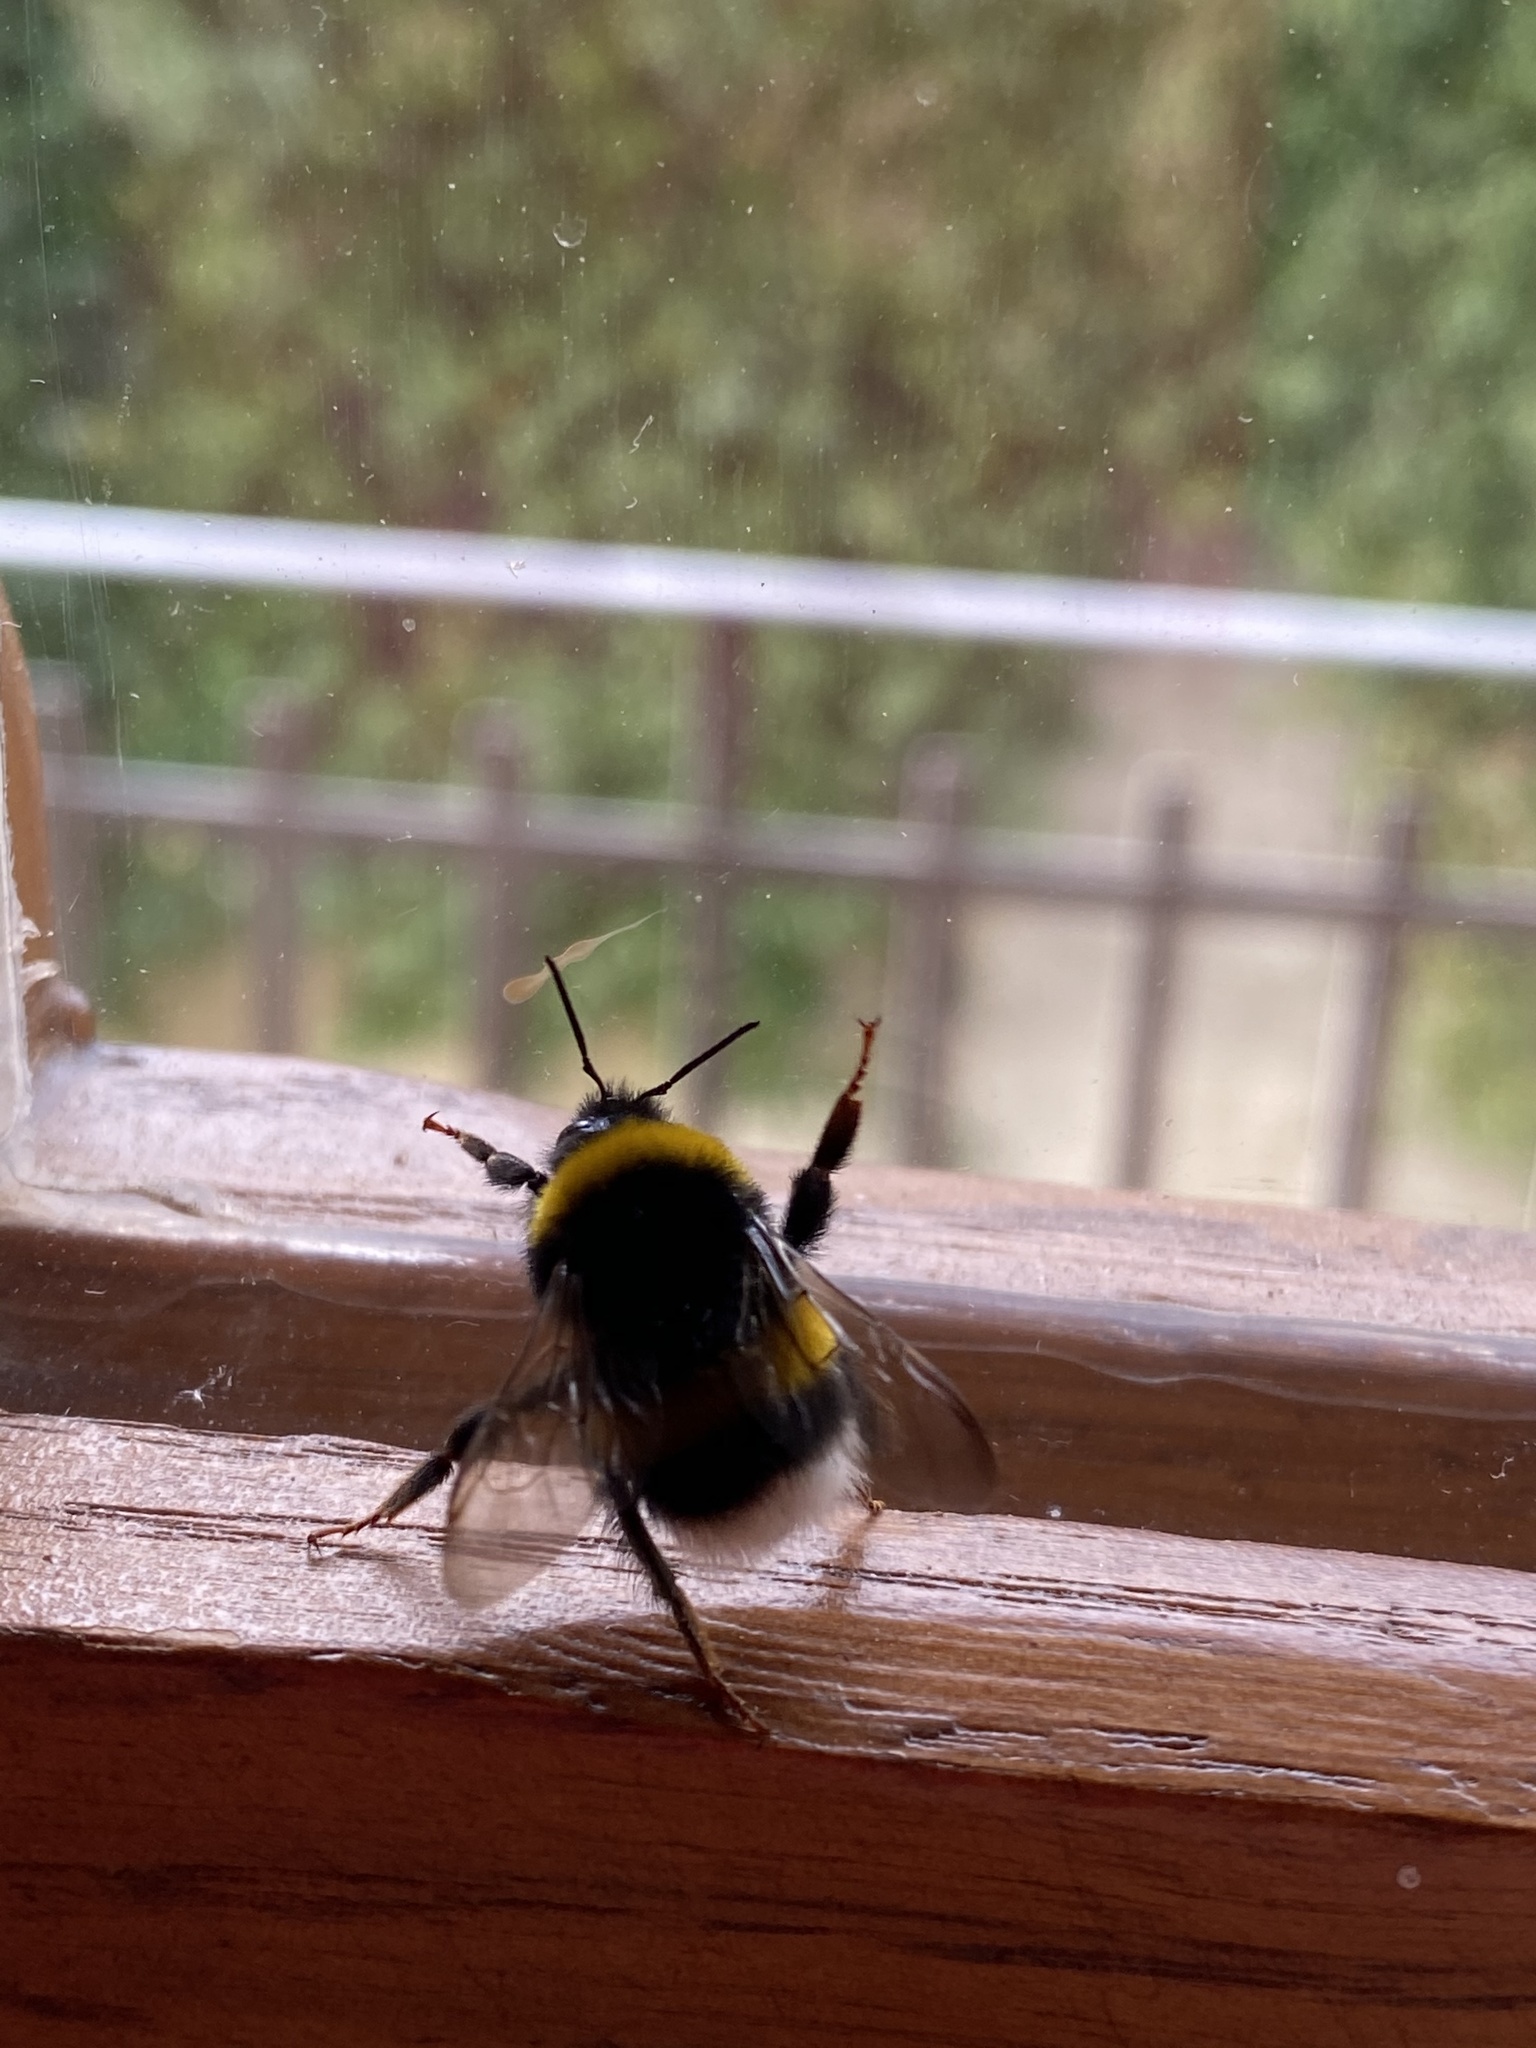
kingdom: Animalia
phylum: Arthropoda
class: Insecta
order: Hymenoptera
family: Apidae
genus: Bombus
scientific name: Bombus terrestris
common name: Buff-tailed bumblebee
